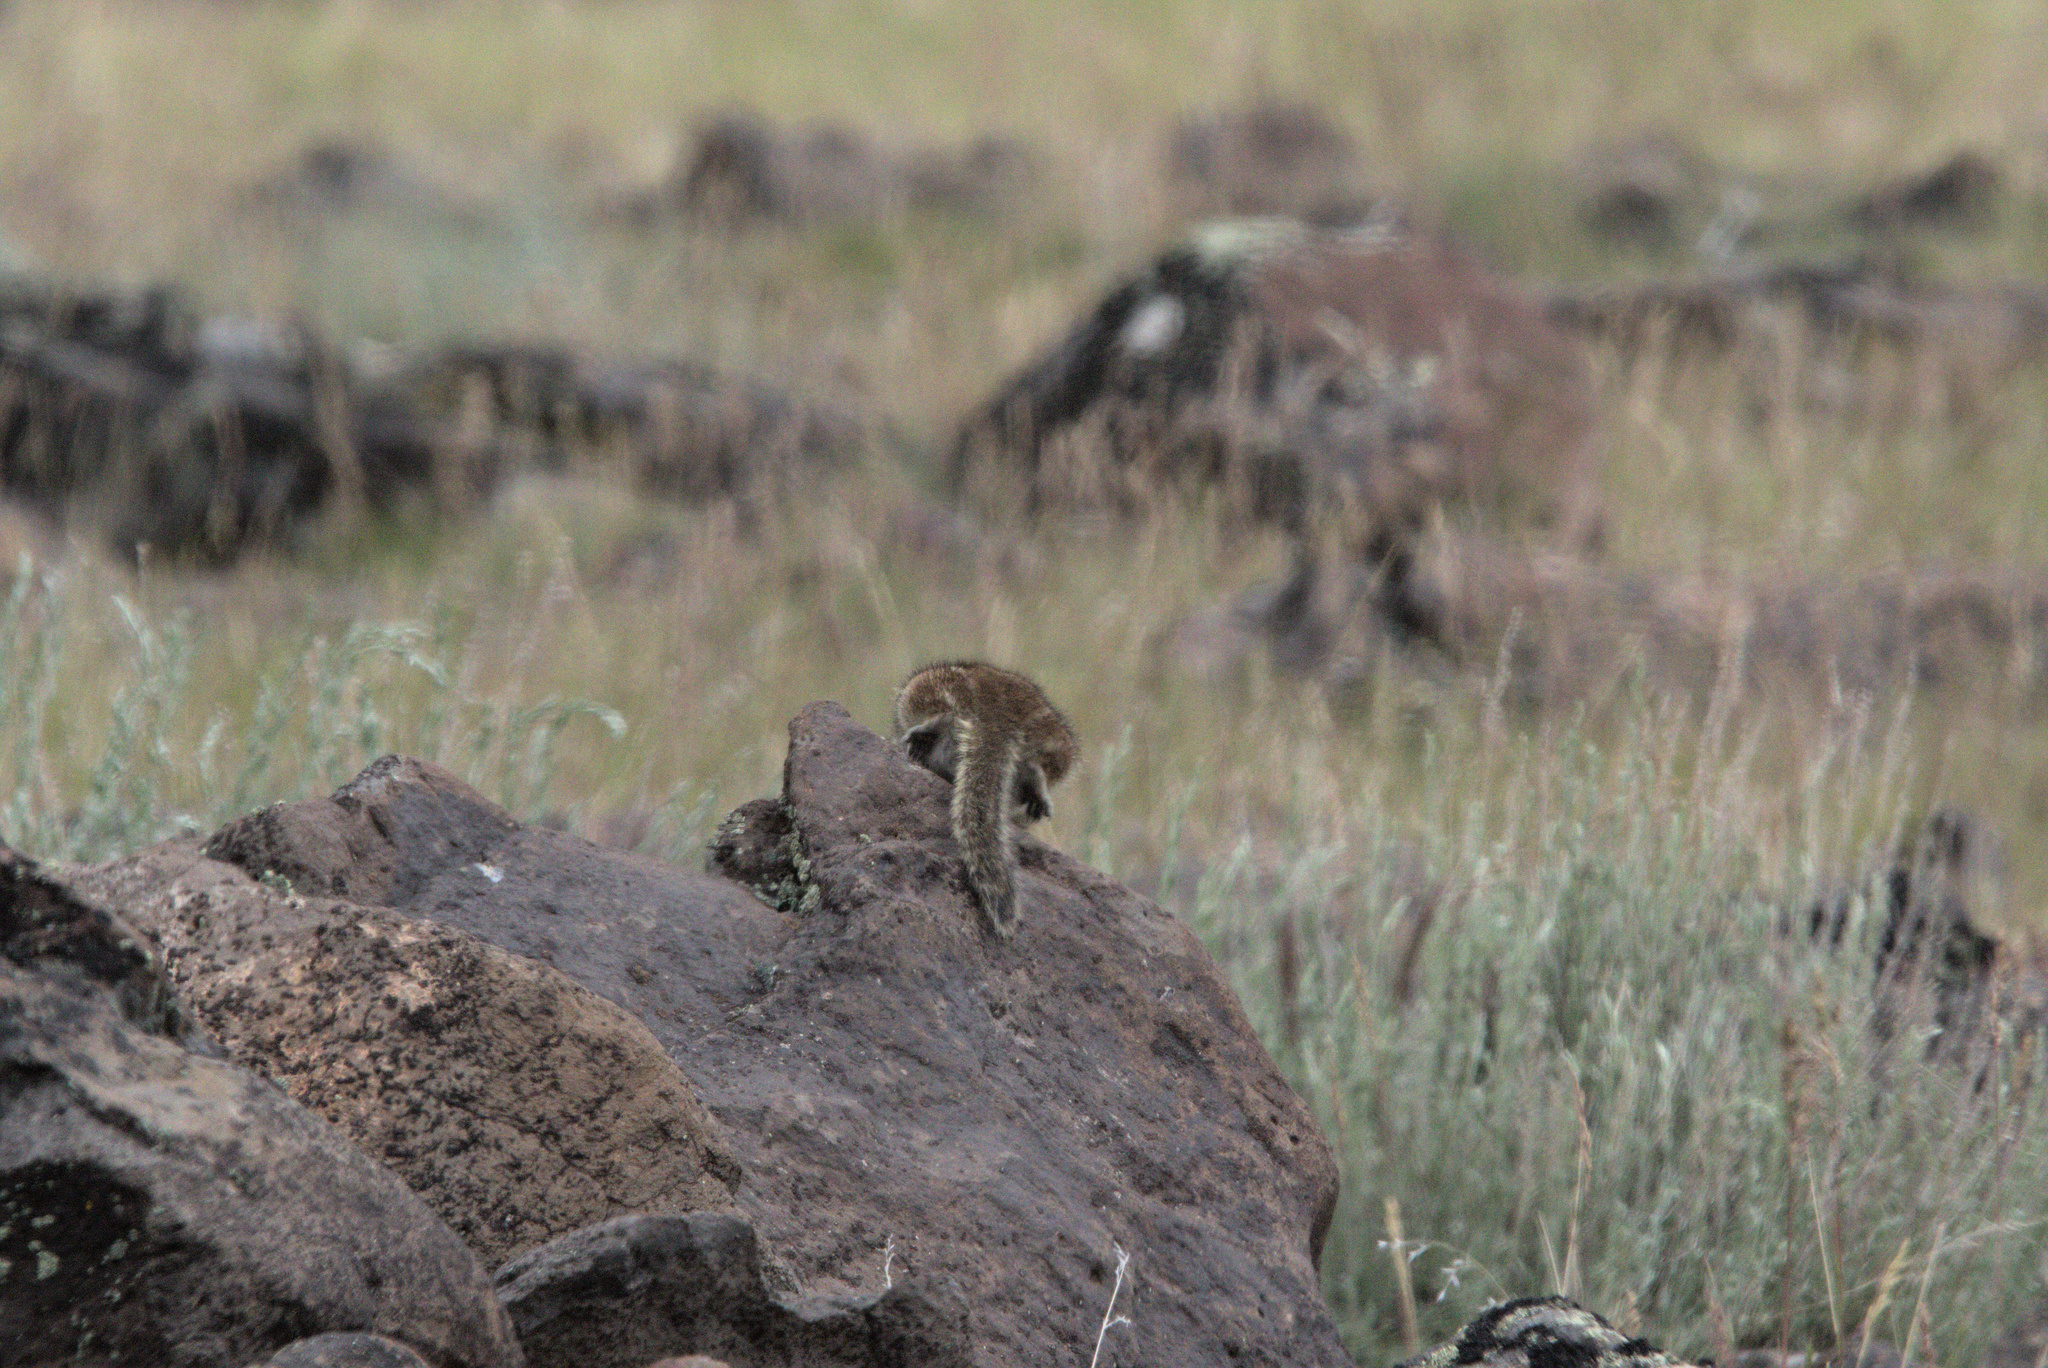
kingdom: Animalia
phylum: Chordata
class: Mammalia
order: Rodentia
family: Sciuridae
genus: Callospermophilus
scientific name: Callospermophilus lateralis
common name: Golden-mantled ground squirrel
